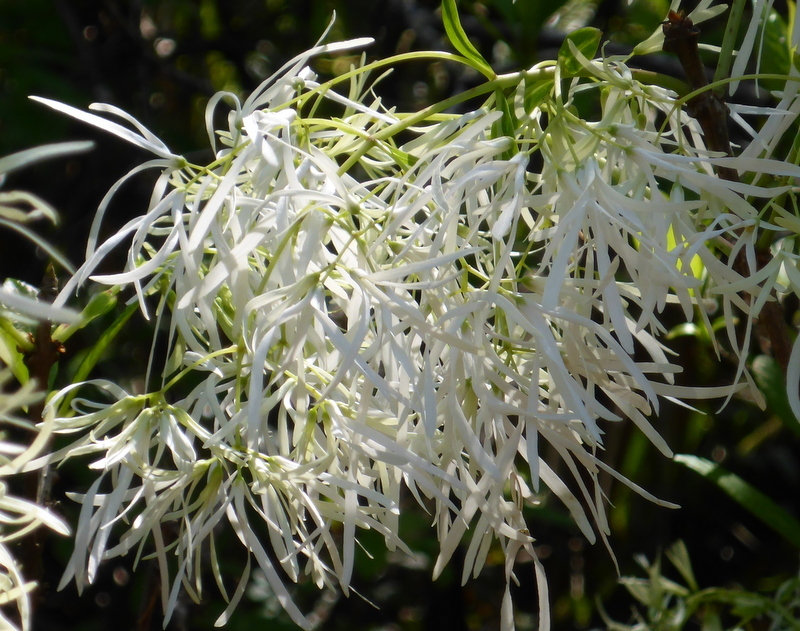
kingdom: Plantae
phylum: Tracheophyta
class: Magnoliopsida
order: Lamiales
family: Oleaceae
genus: Chionanthus
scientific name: Chionanthus virginicus
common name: American fringetree
